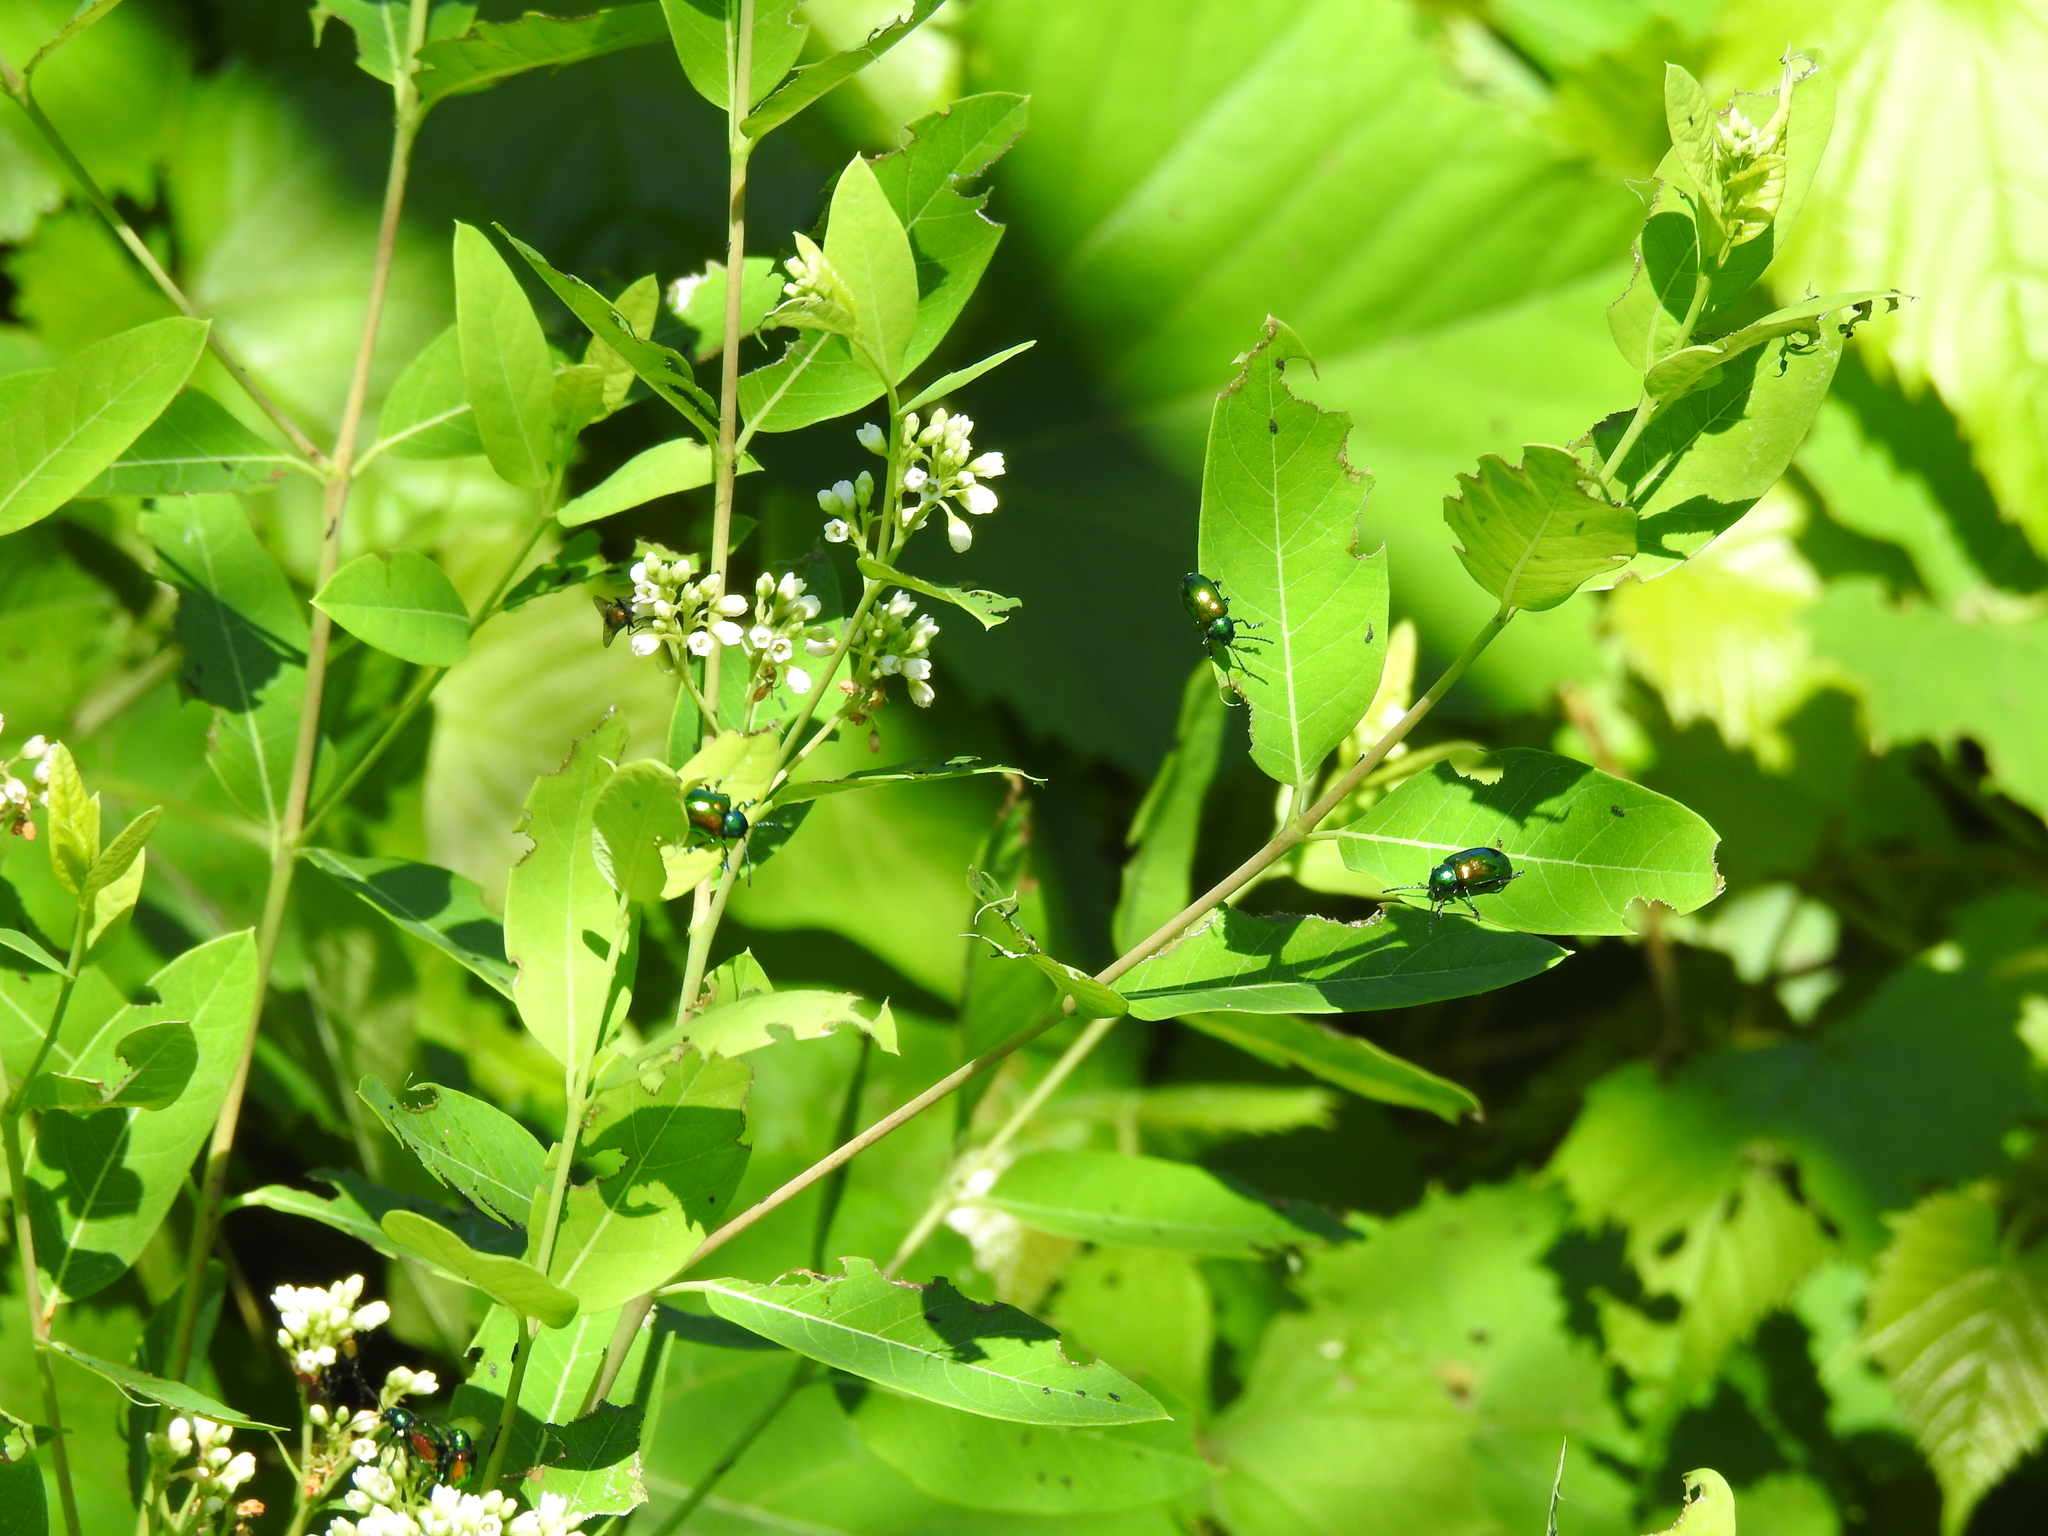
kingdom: Animalia
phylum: Arthropoda
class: Insecta
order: Coleoptera
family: Chrysomelidae
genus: Chrysochus
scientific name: Chrysochus auratus
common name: Dogbane leaf beetle
